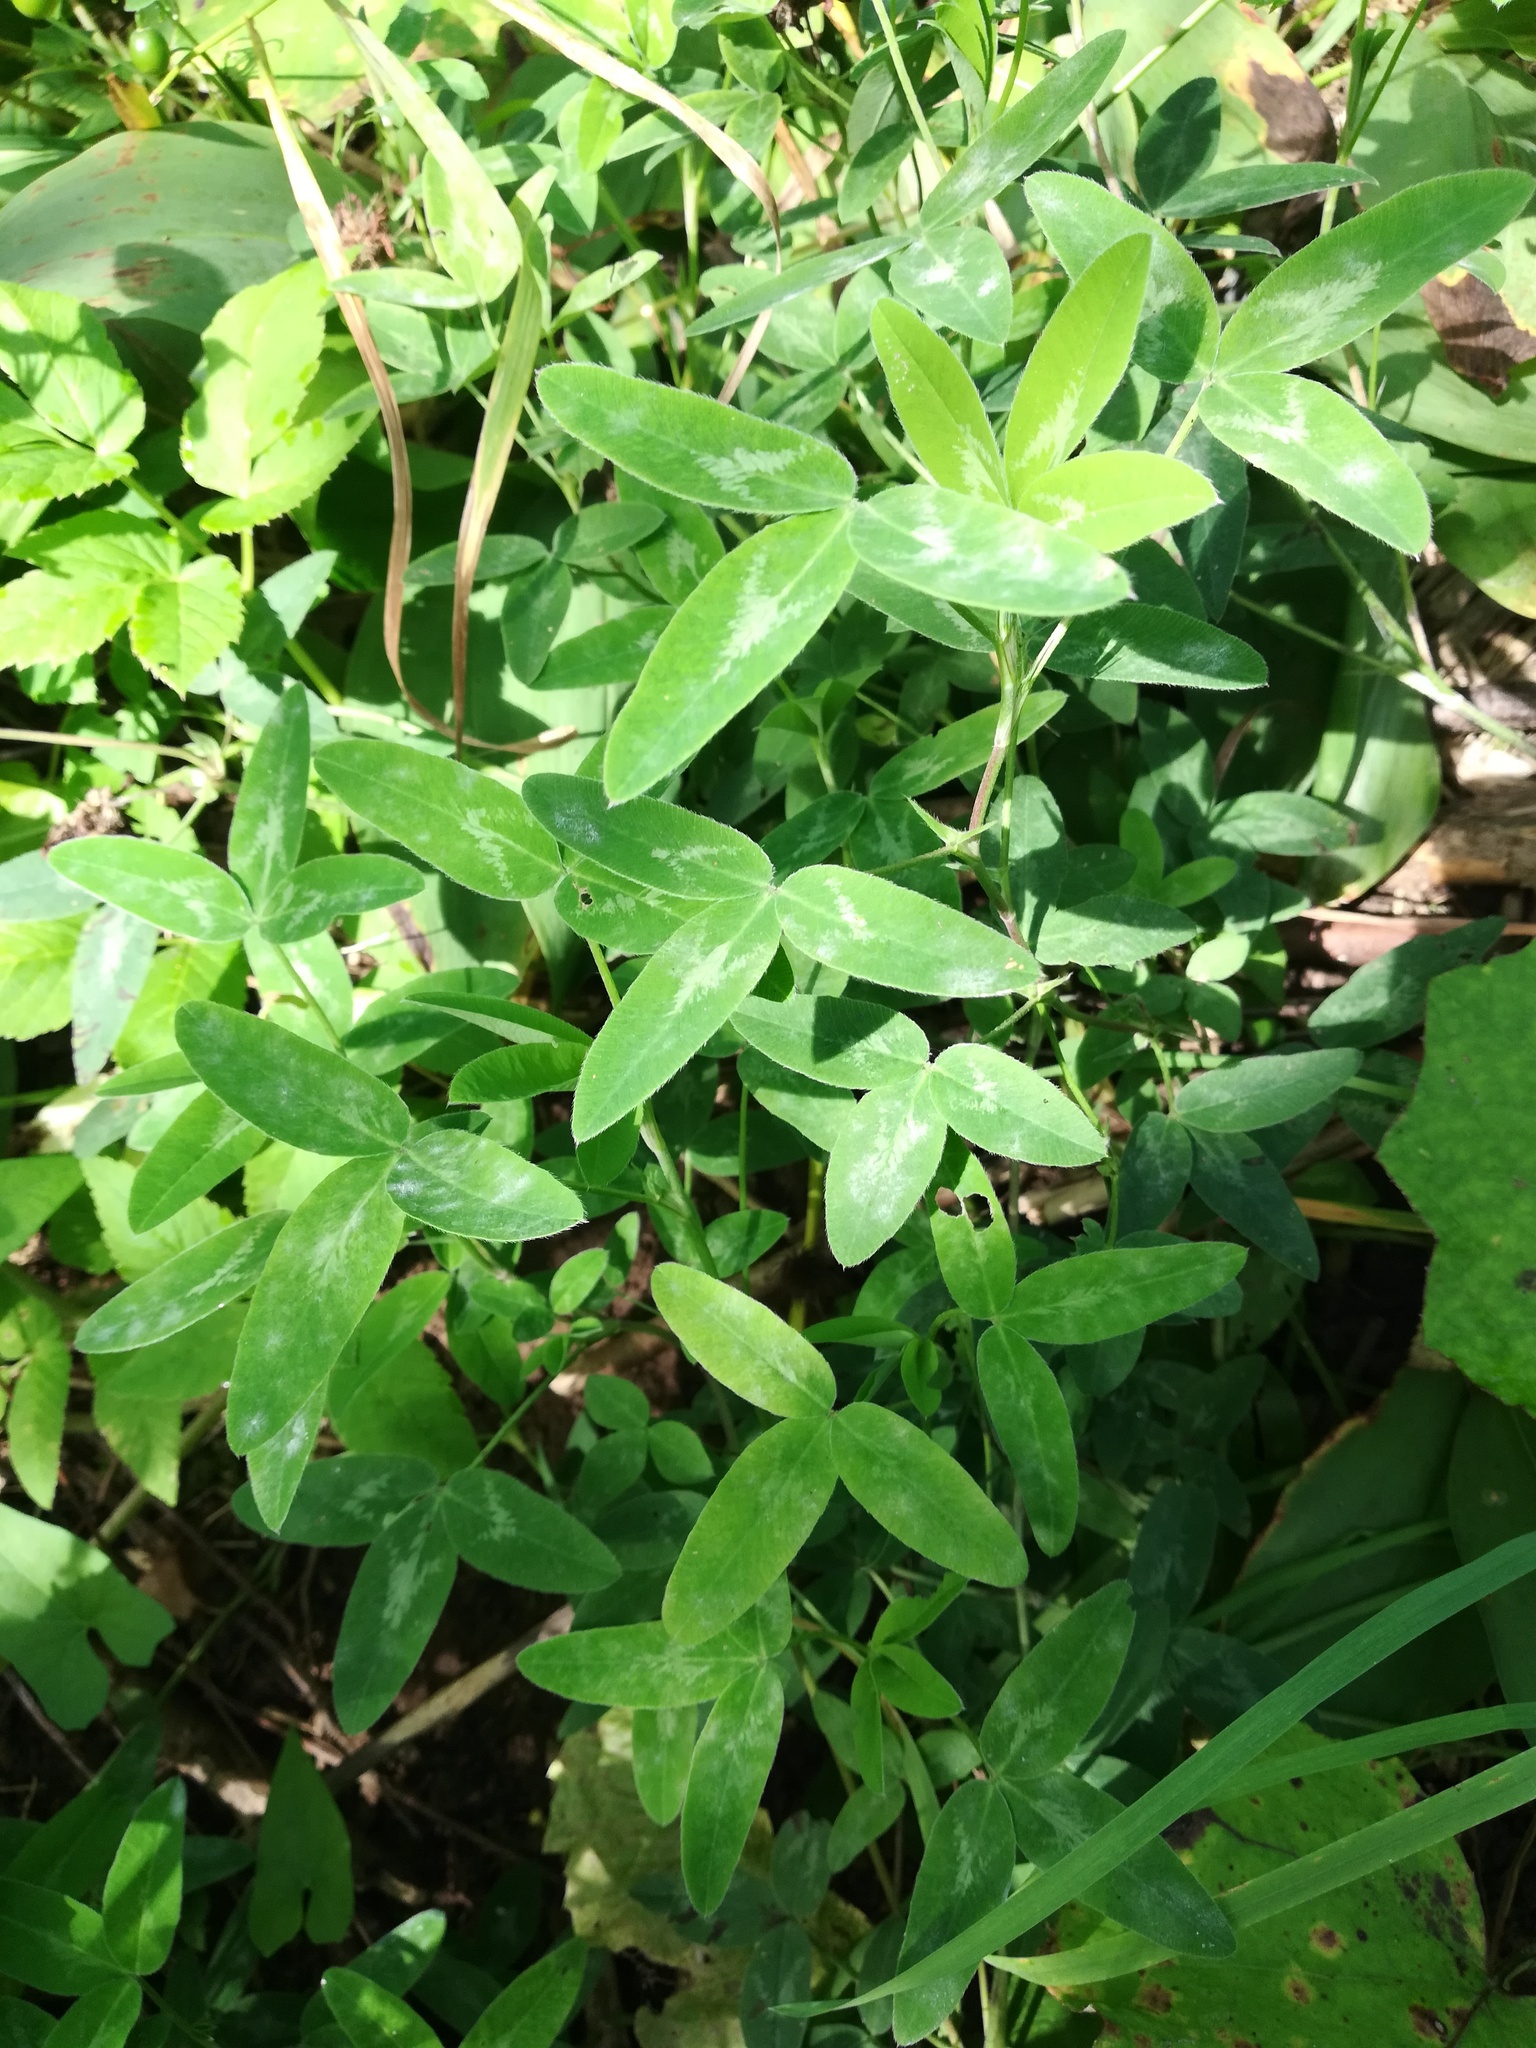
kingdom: Plantae
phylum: Tracheophyta
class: Magnoliopsida
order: Fabales
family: Fabaceae
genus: Trifolium
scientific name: Trifolium medium
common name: Zigzag clover
